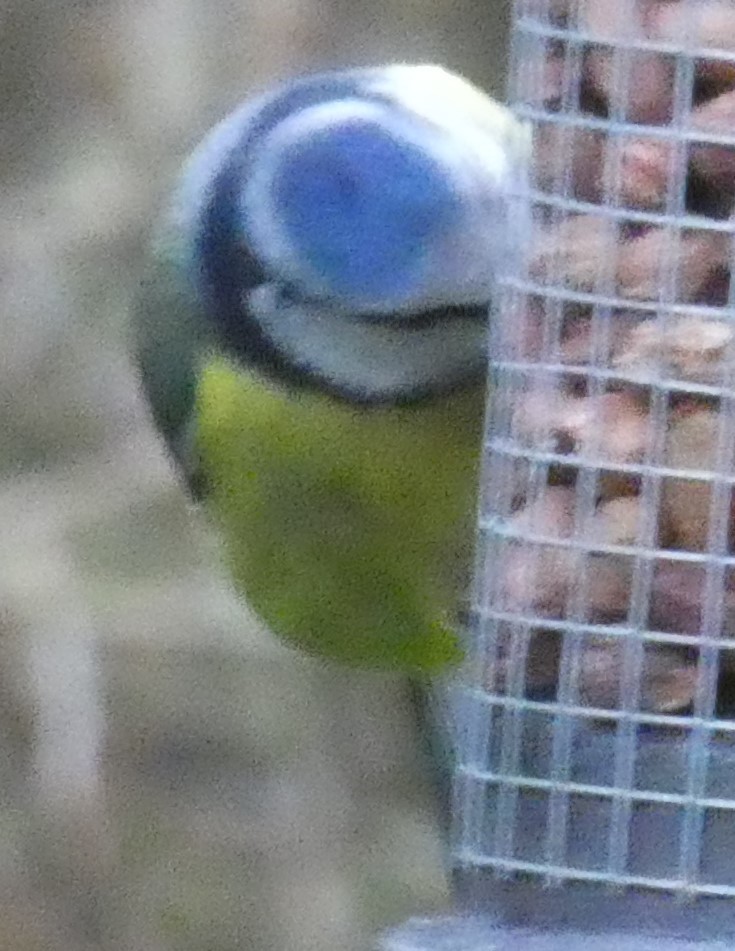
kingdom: Animalia
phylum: Chordata
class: Aves
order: Passeriformes
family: Paridae
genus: Cyanistes
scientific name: Cyanistes caeruleus
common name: Eurasian blue tit
